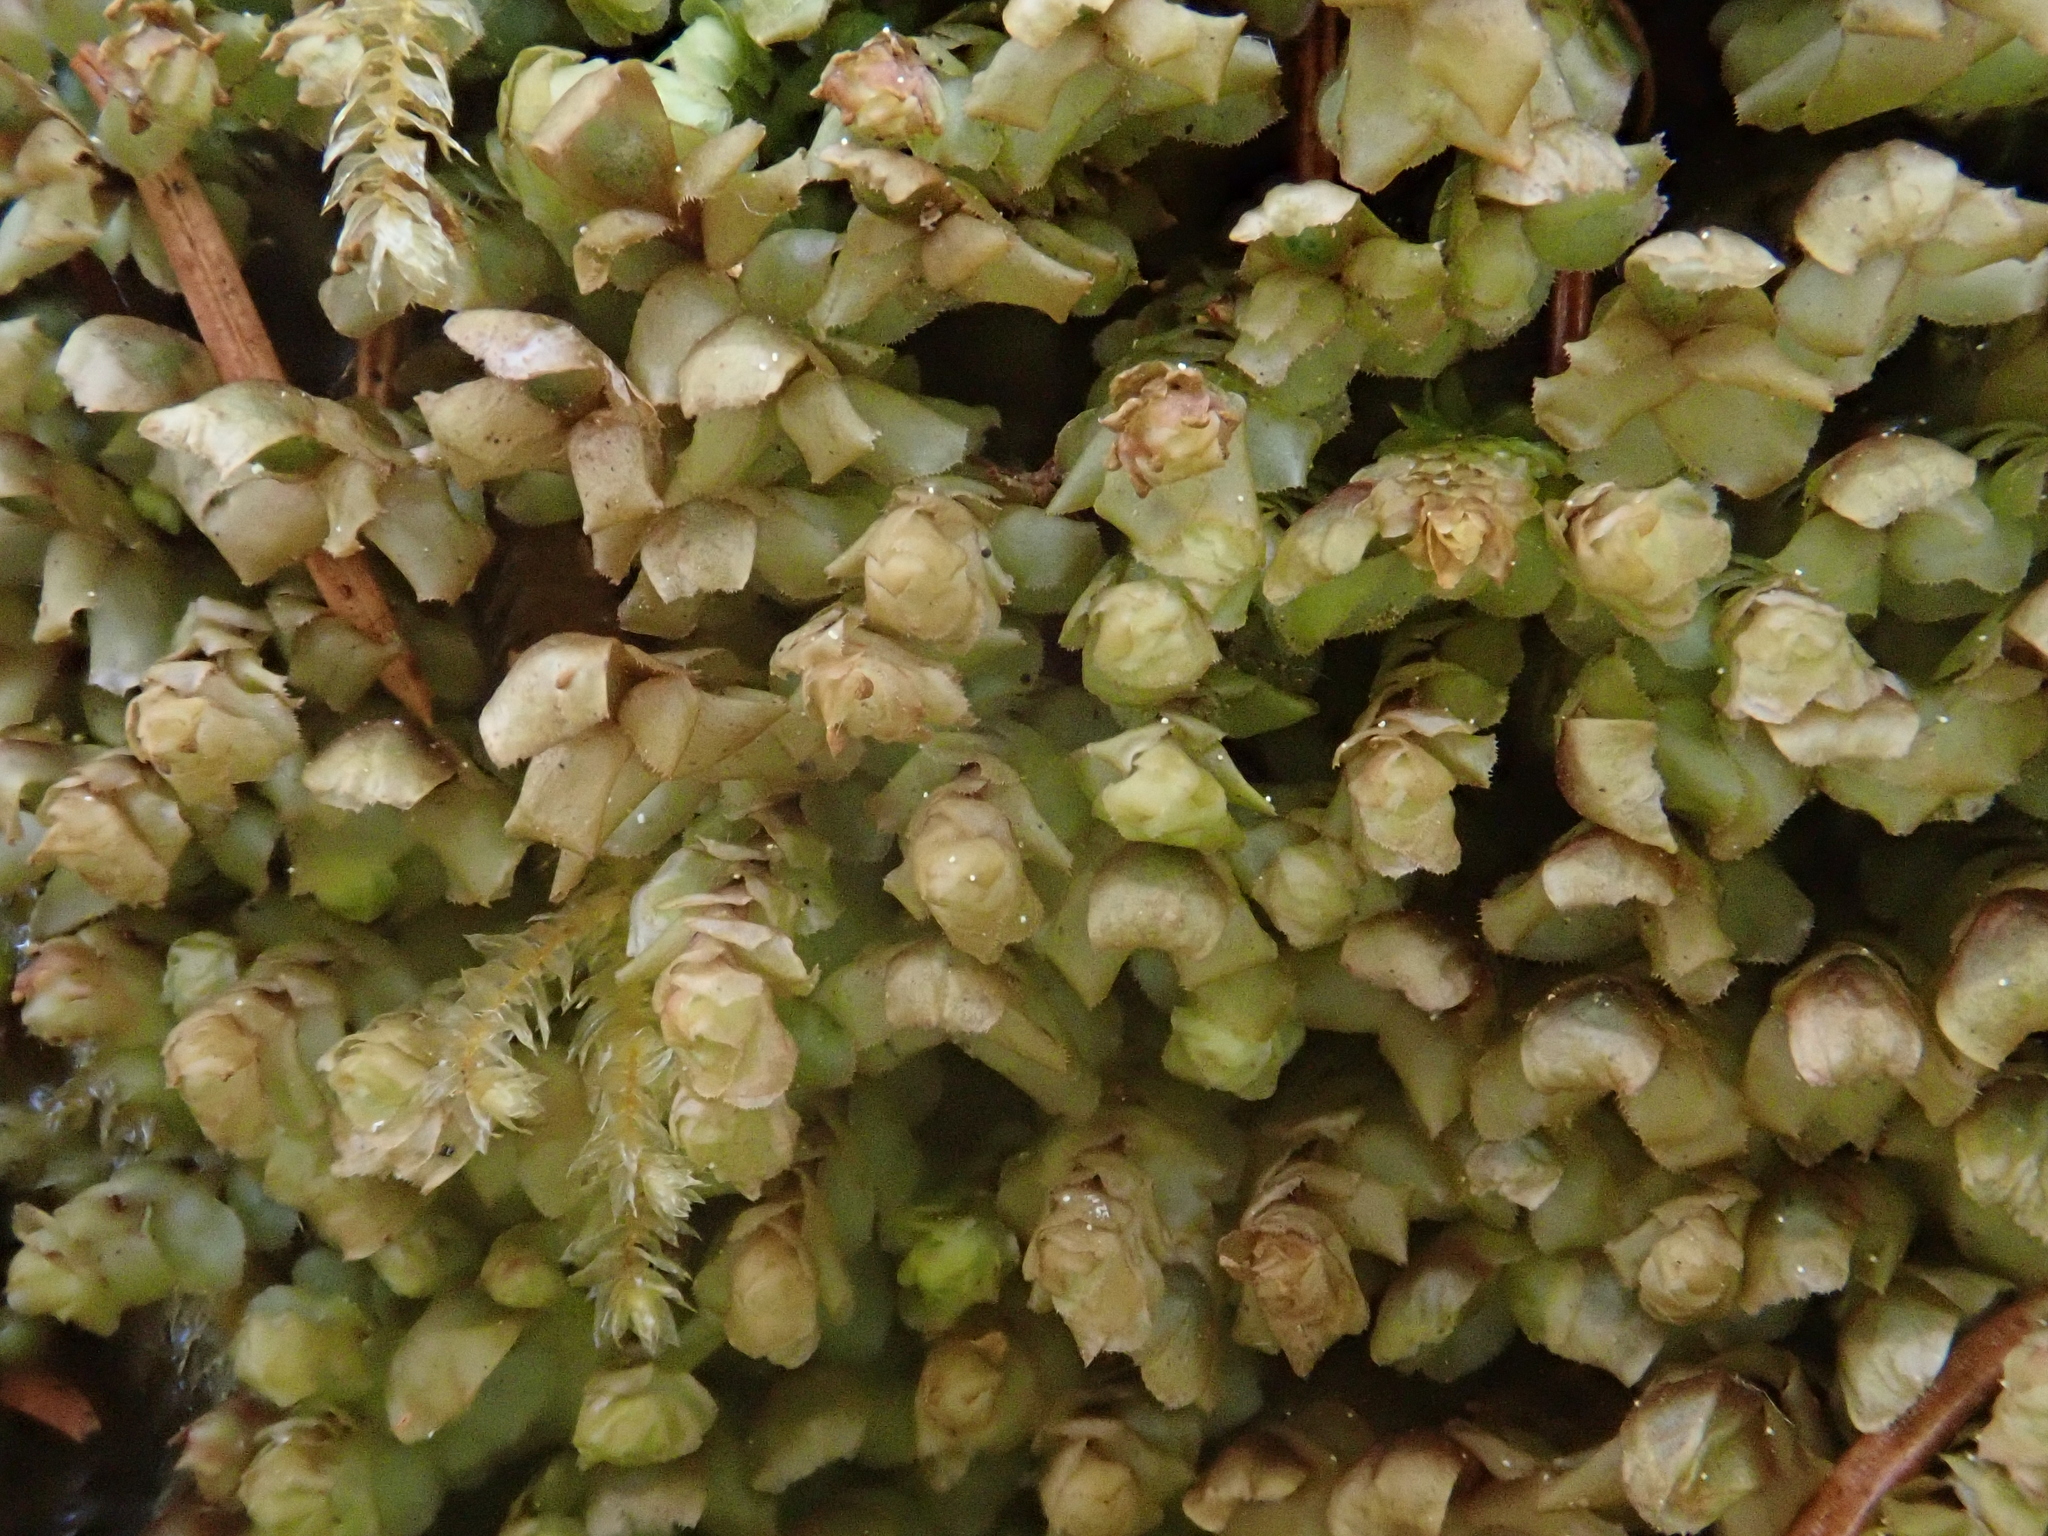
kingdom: Plantae
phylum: Marchantiophyta
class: Jungermanniopsida
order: Jungermanniales
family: Scapaniaceae
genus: Scapania
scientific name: Scapania nemorea
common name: Grove earwort
